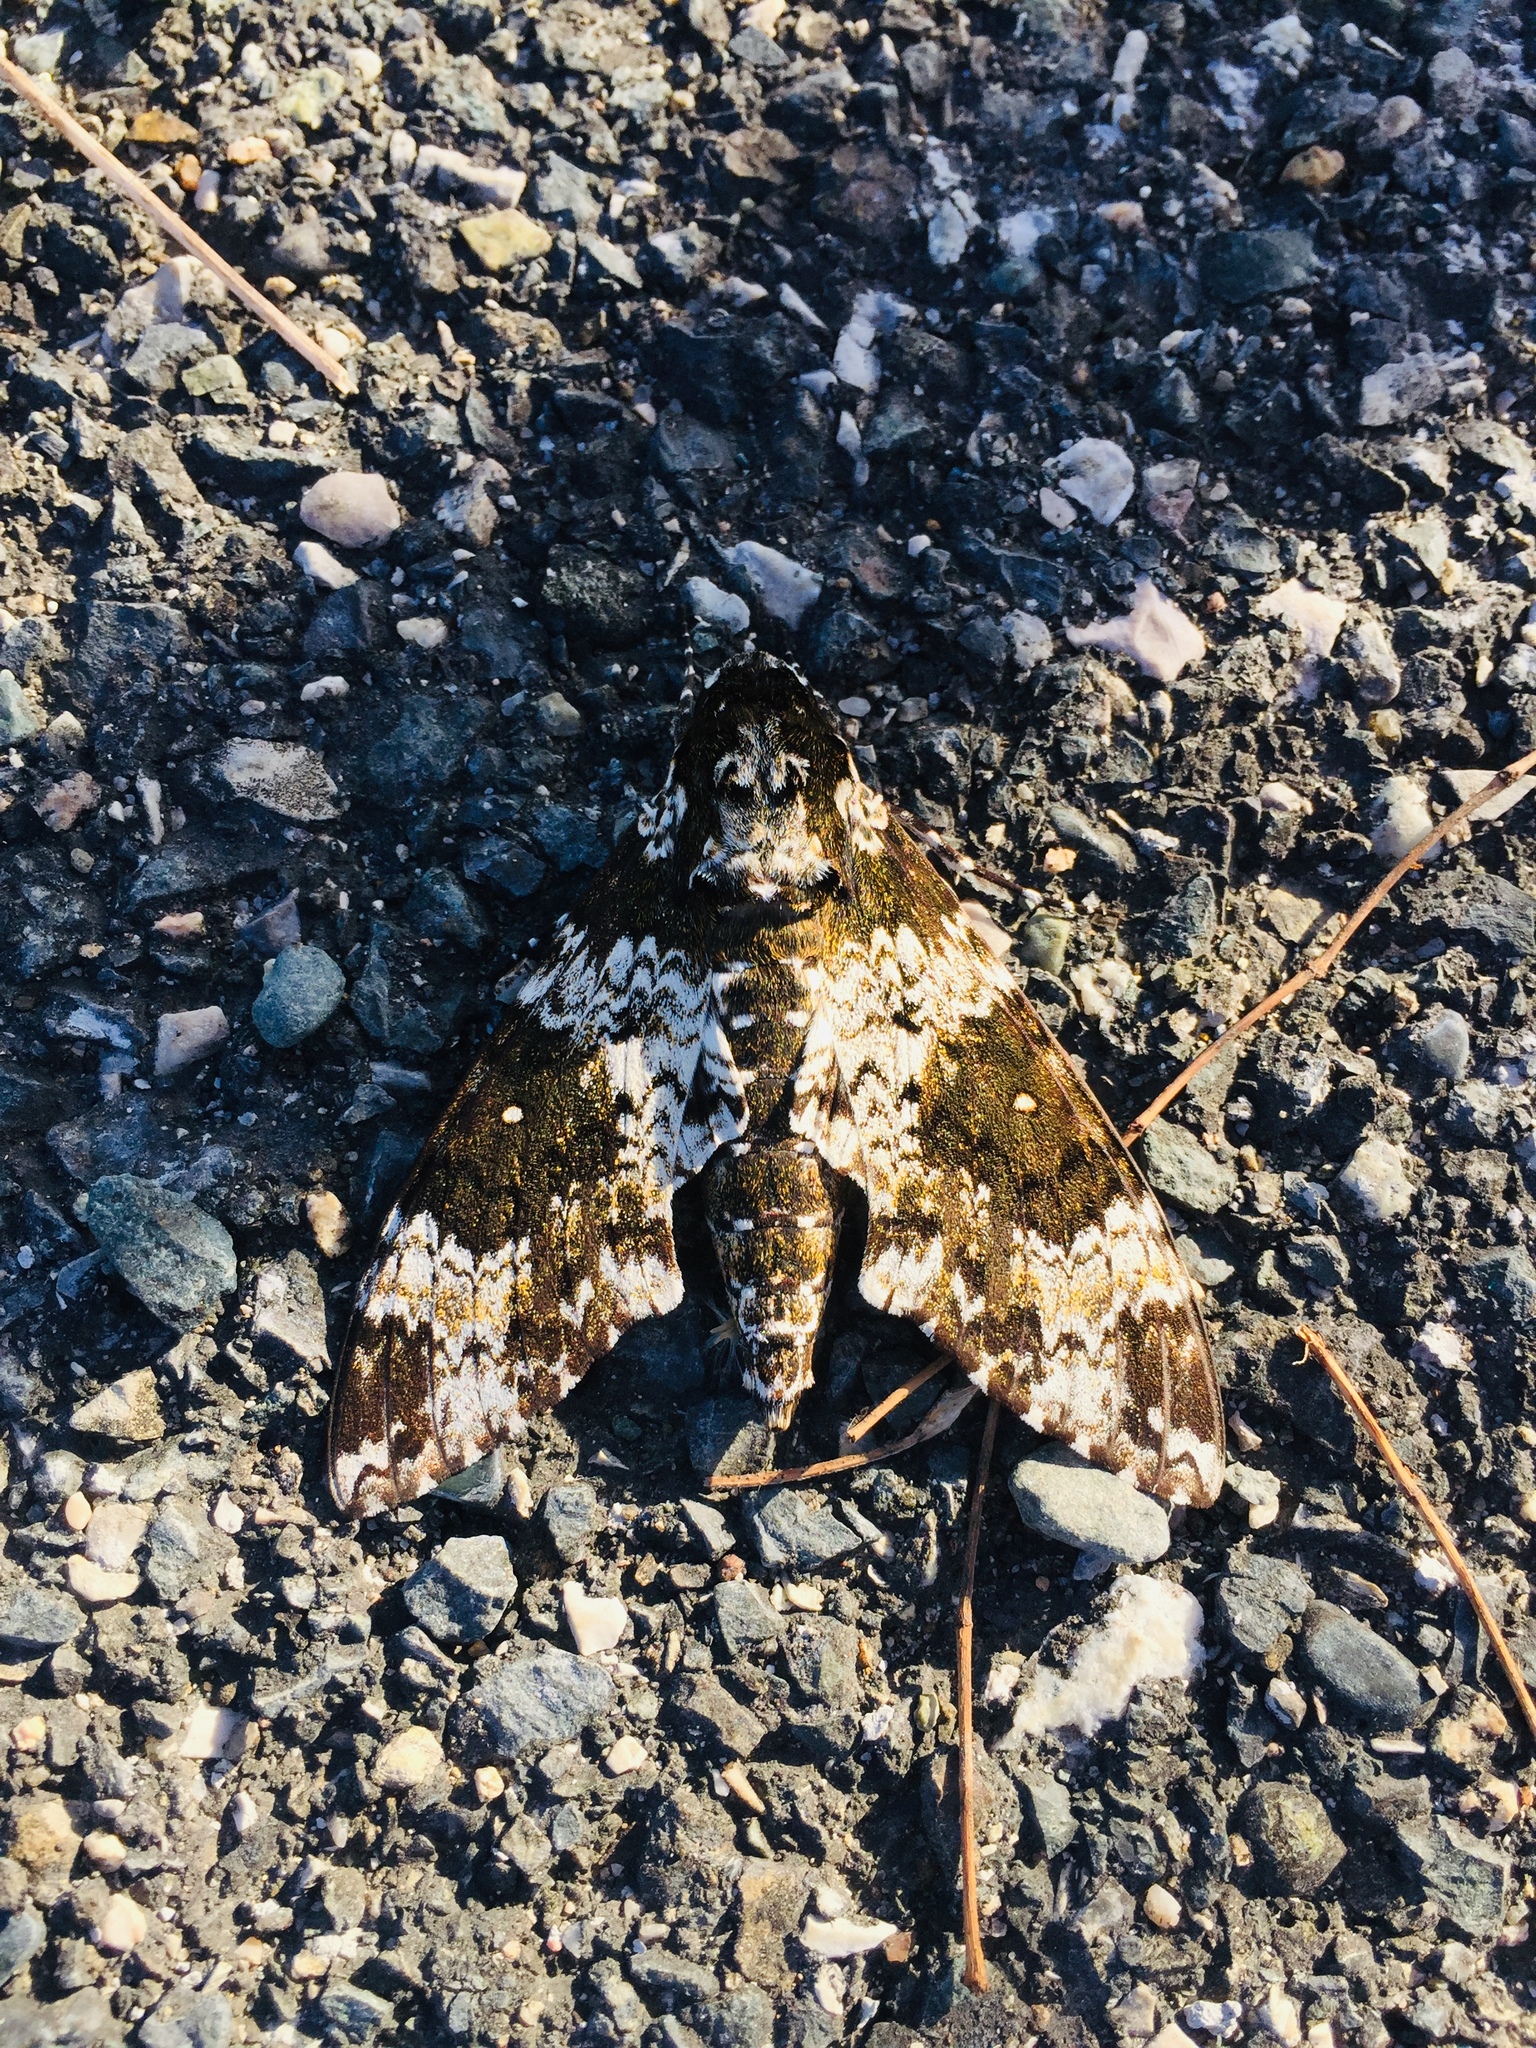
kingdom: Animalia
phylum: Arthropoda
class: Insecta
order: Lepidoptera
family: Sphingidae
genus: Manduca
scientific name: Manduca rustica
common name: Rustic sphinx
